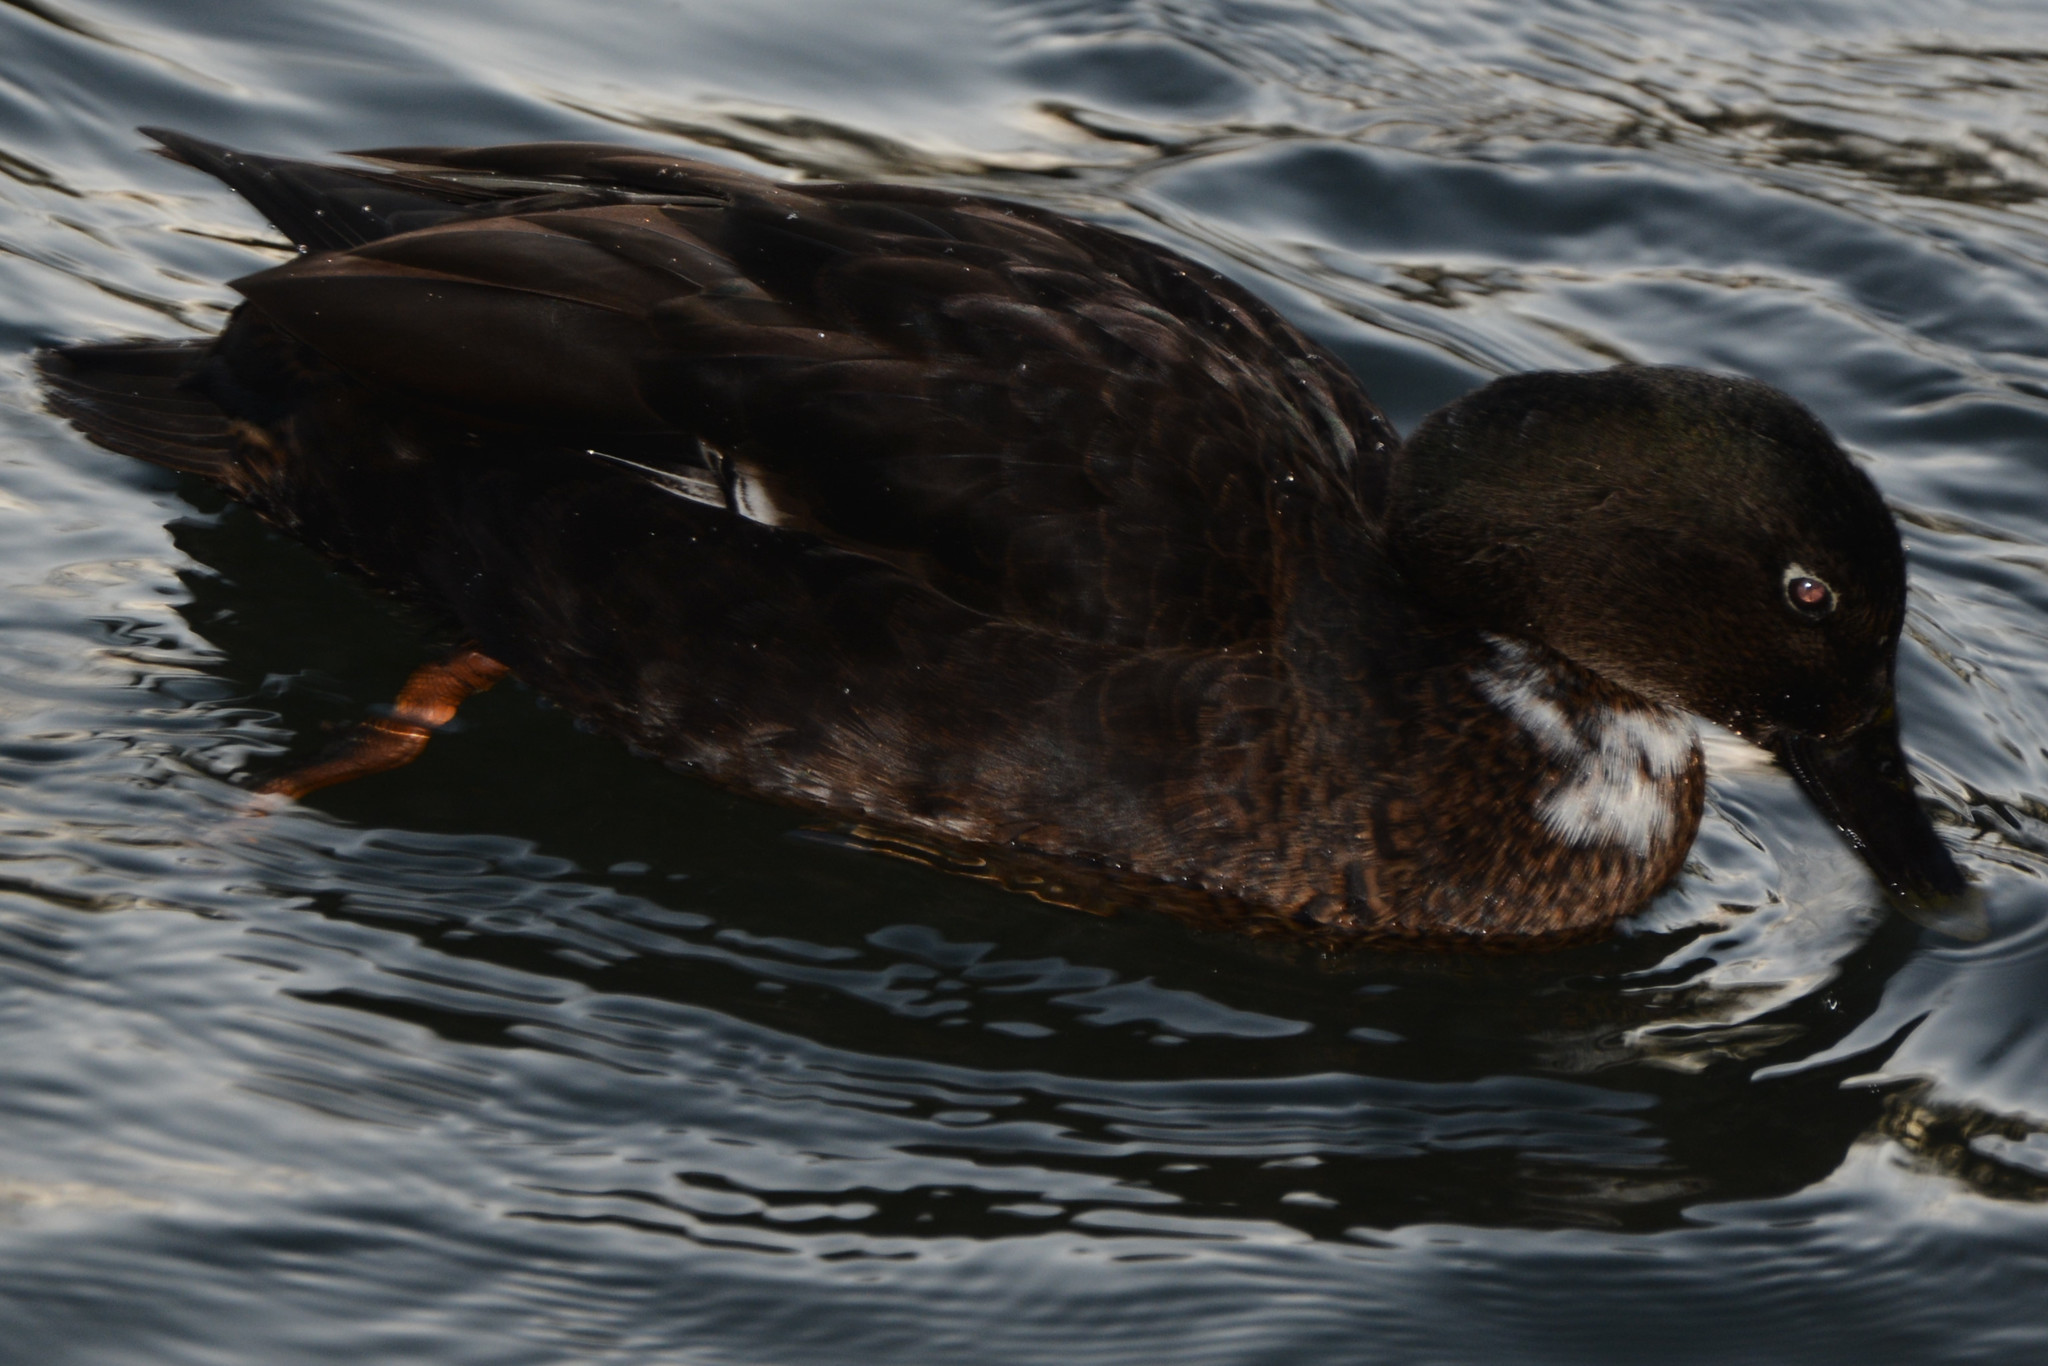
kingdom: Animalia
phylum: Chordata
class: Aves
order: Anseriformes
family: Anatidae
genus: Anas
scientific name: Anas platyrhynchos
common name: Mallard
